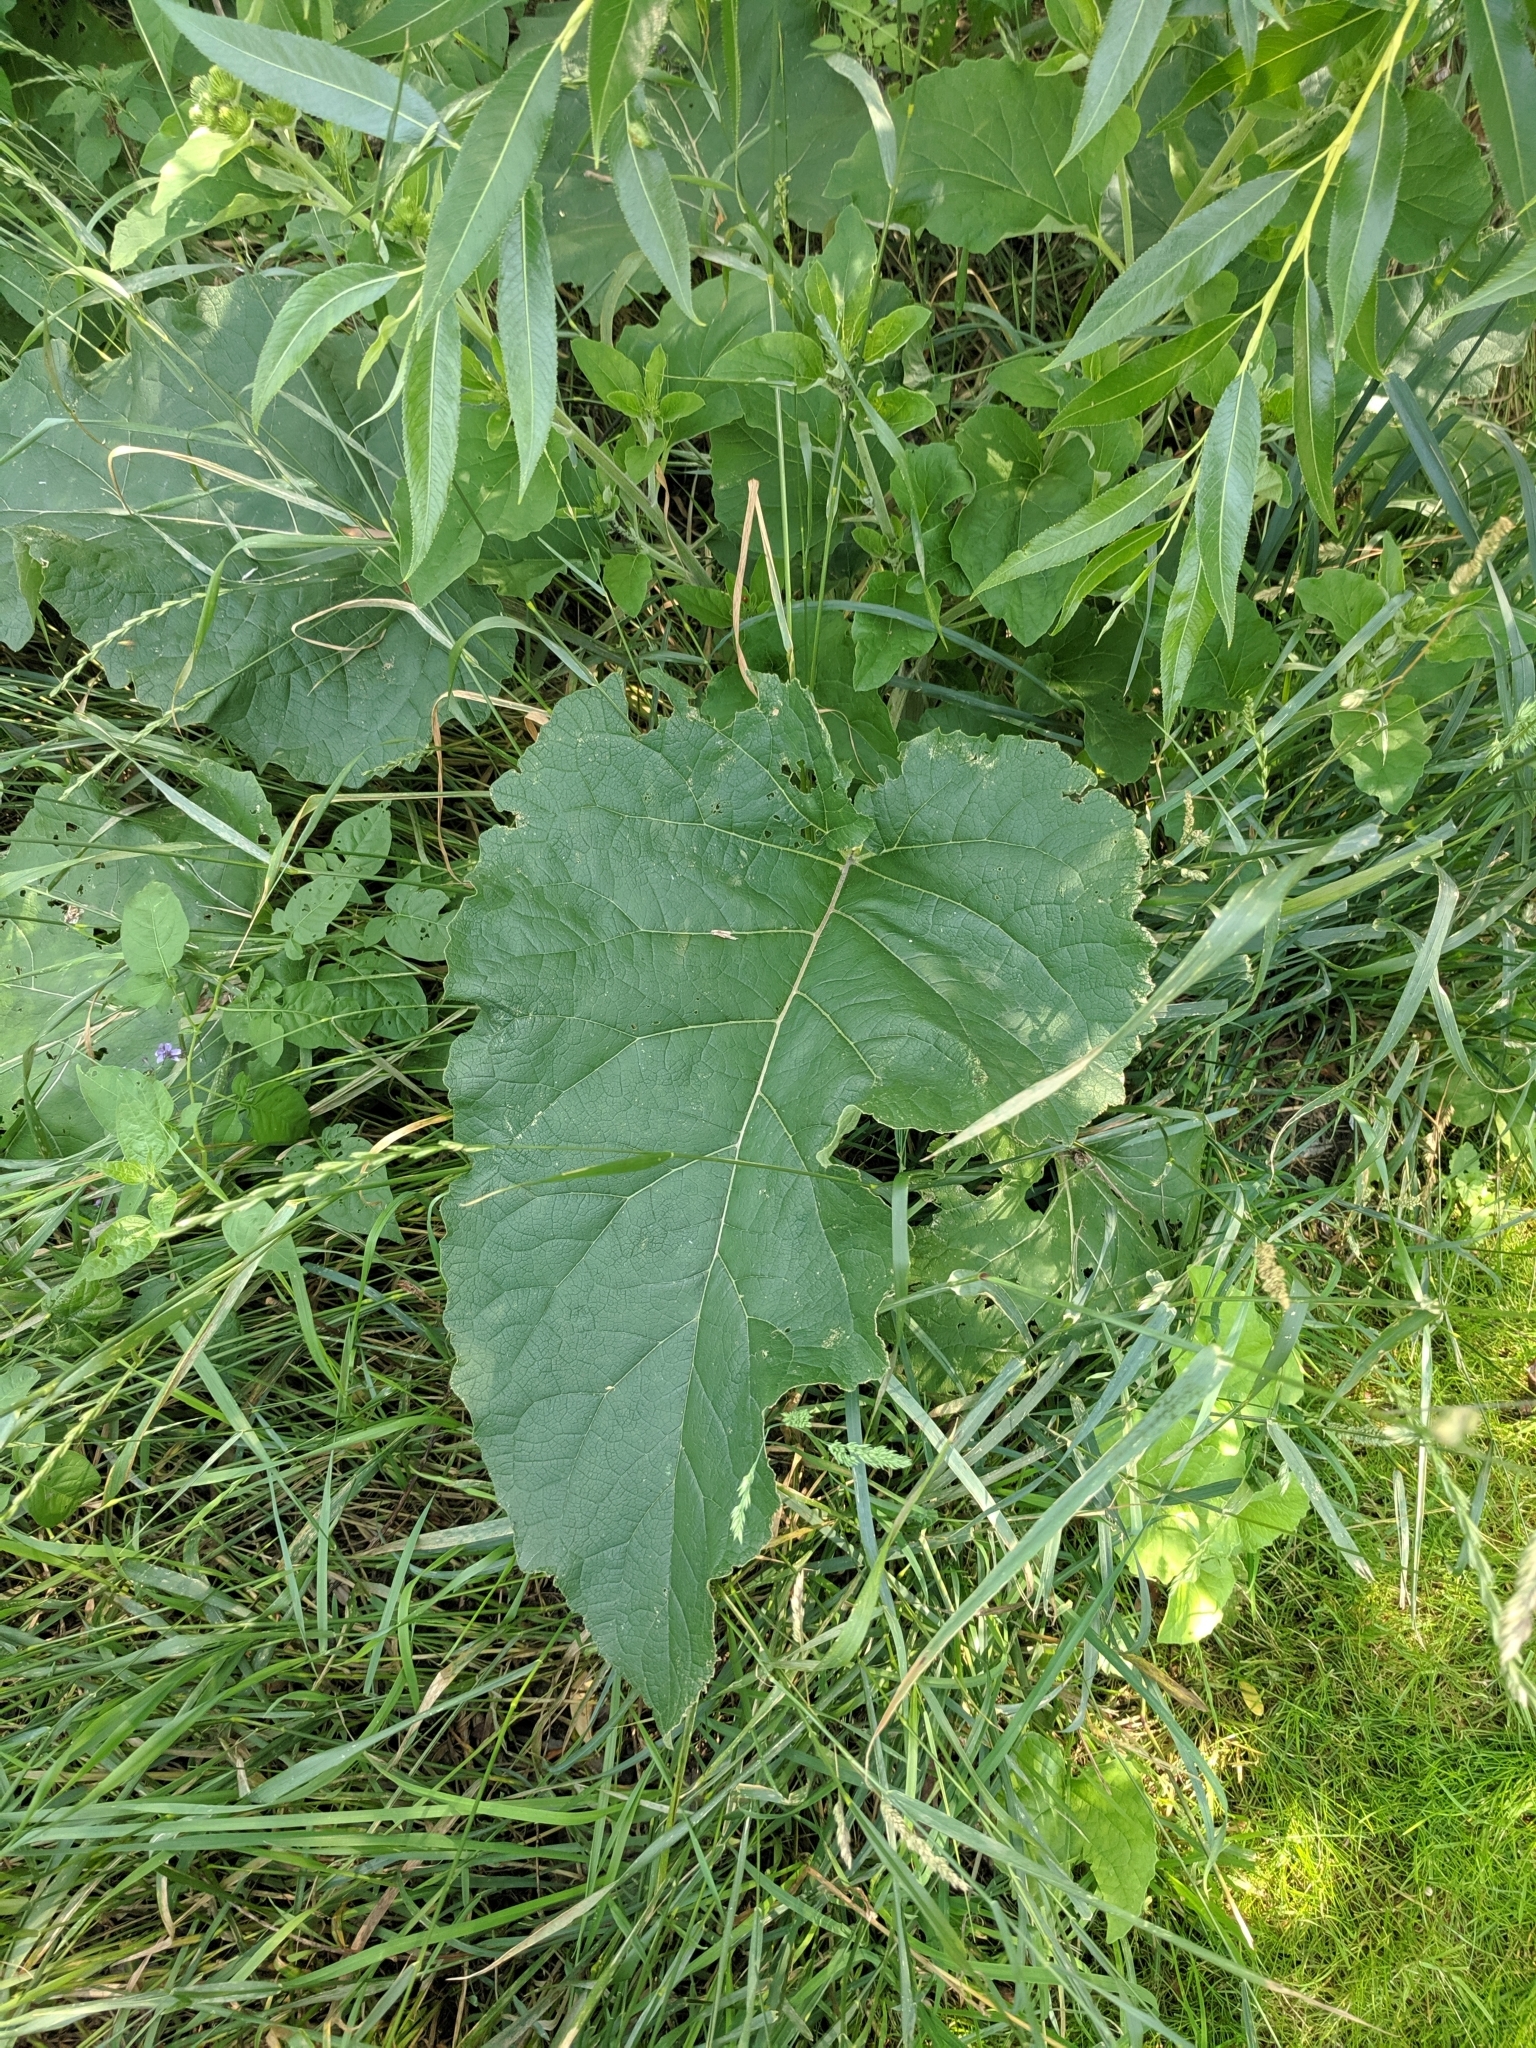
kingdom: Plantae
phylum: Tracheophyta
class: Magnoliopsida
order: Asterales
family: Asteraceae
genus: Arctium
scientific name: Arctium minus
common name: Lesser burdock
